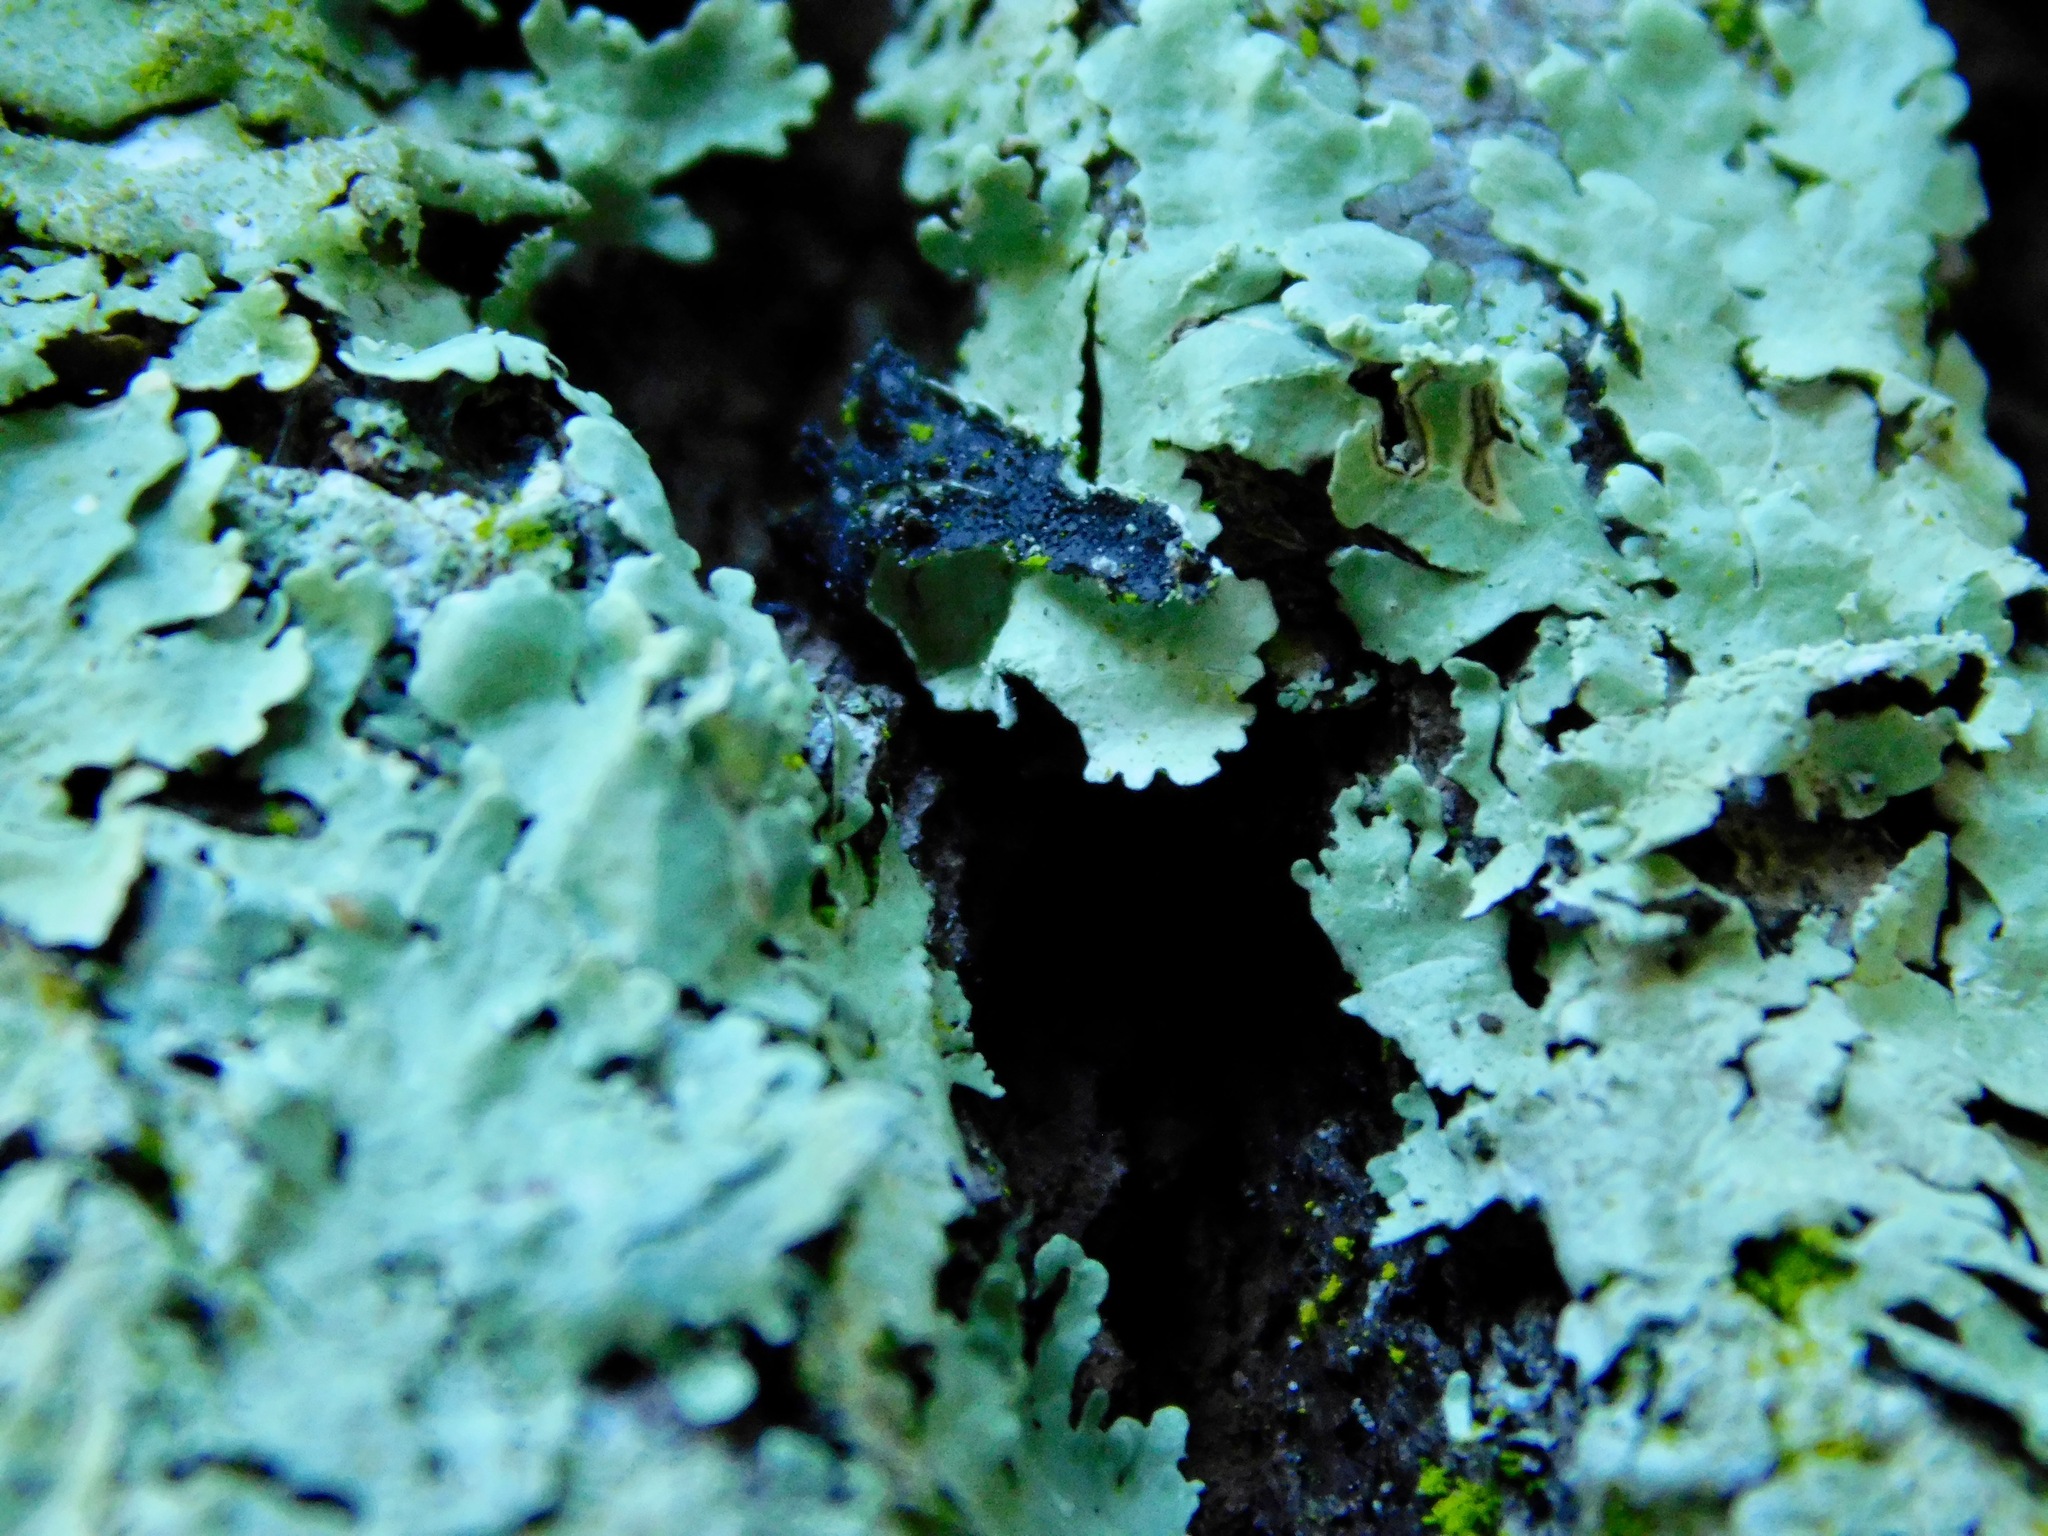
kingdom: Fungi
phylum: Basidiomycota
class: Agaricomycetes
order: Cantharellales
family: Hydnaceae
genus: Burgella
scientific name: Burgella flavoparmeliae
